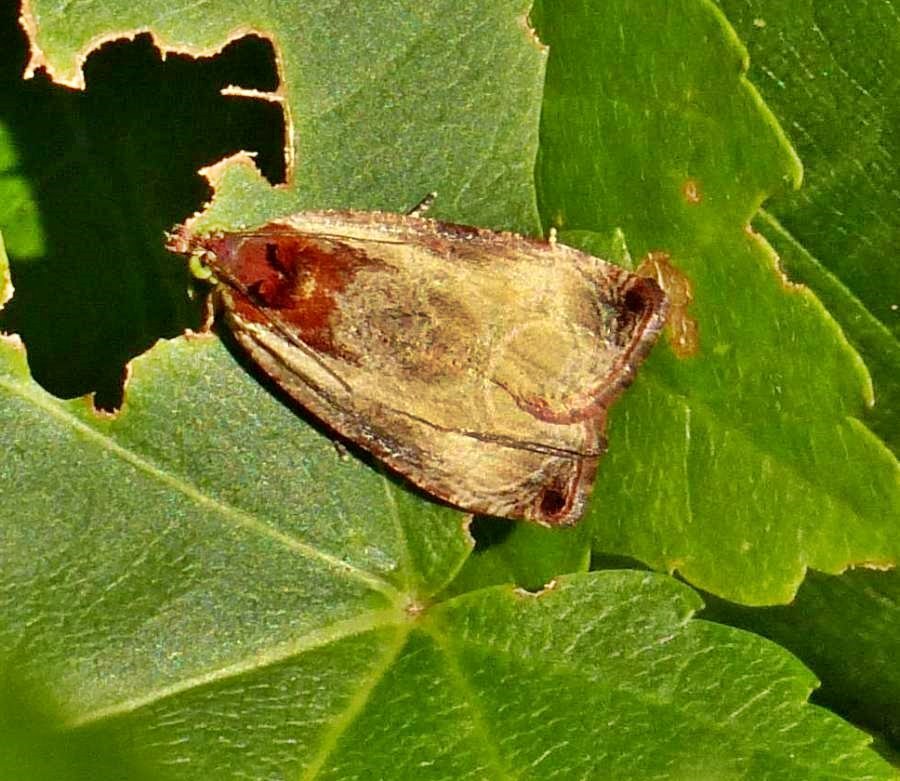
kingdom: Animalia
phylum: Arthropoda
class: Insecta
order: Lepidoptera
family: Tortricidae
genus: Olethreutes
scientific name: Olethreutes inornatana
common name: Inornate olethreutes moth
